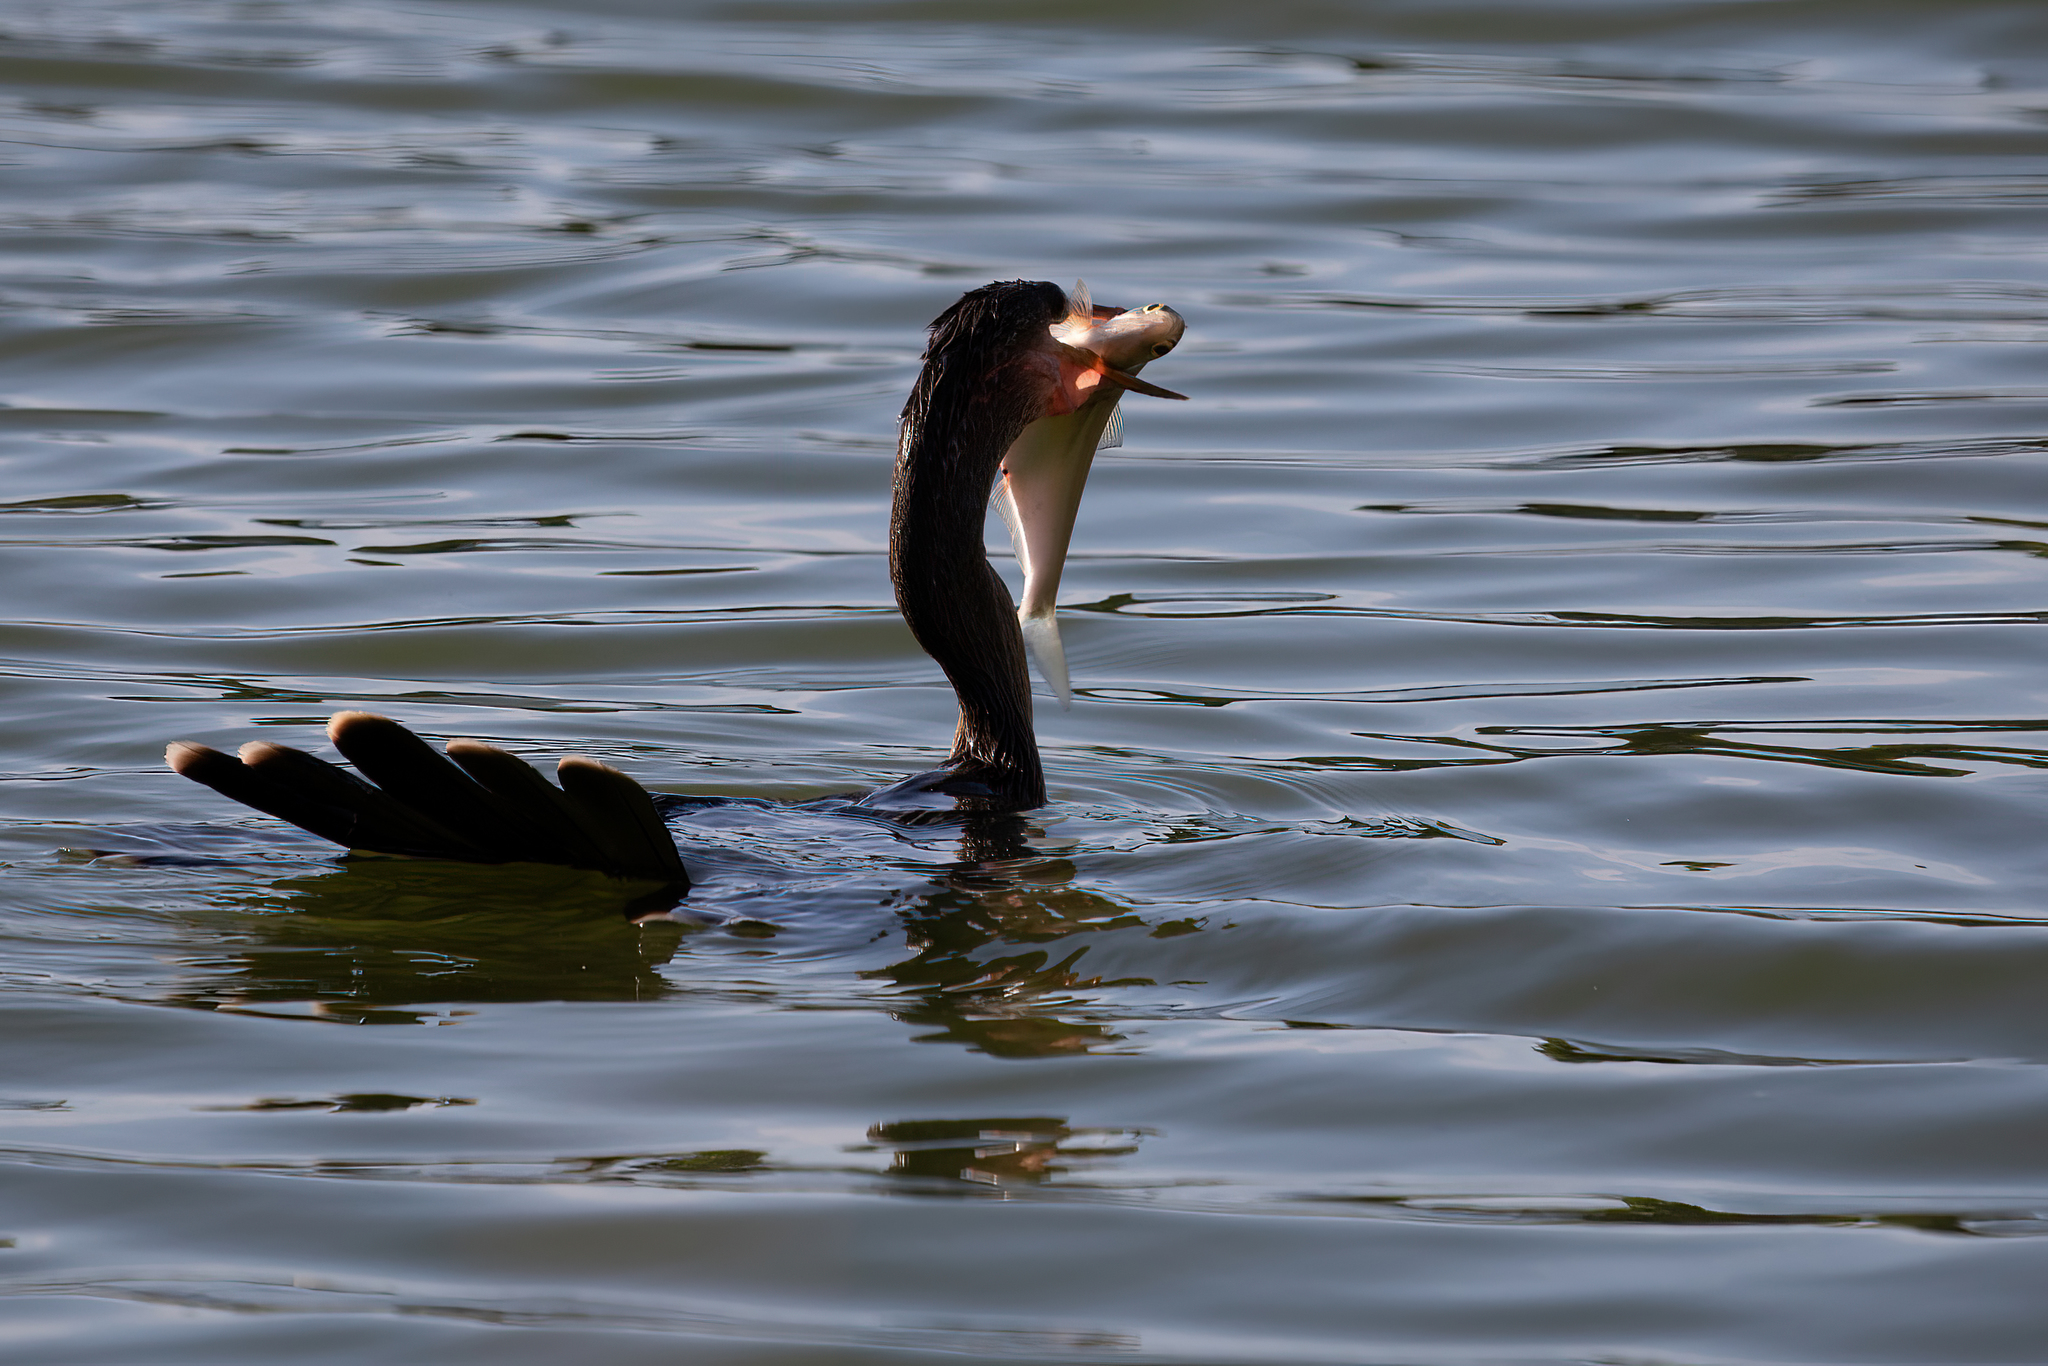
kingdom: Animalia
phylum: Chordata
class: Aves
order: Suliformes
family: Anhingidae
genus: Anhinga
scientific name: Anhinga anhinga
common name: Anhinga
